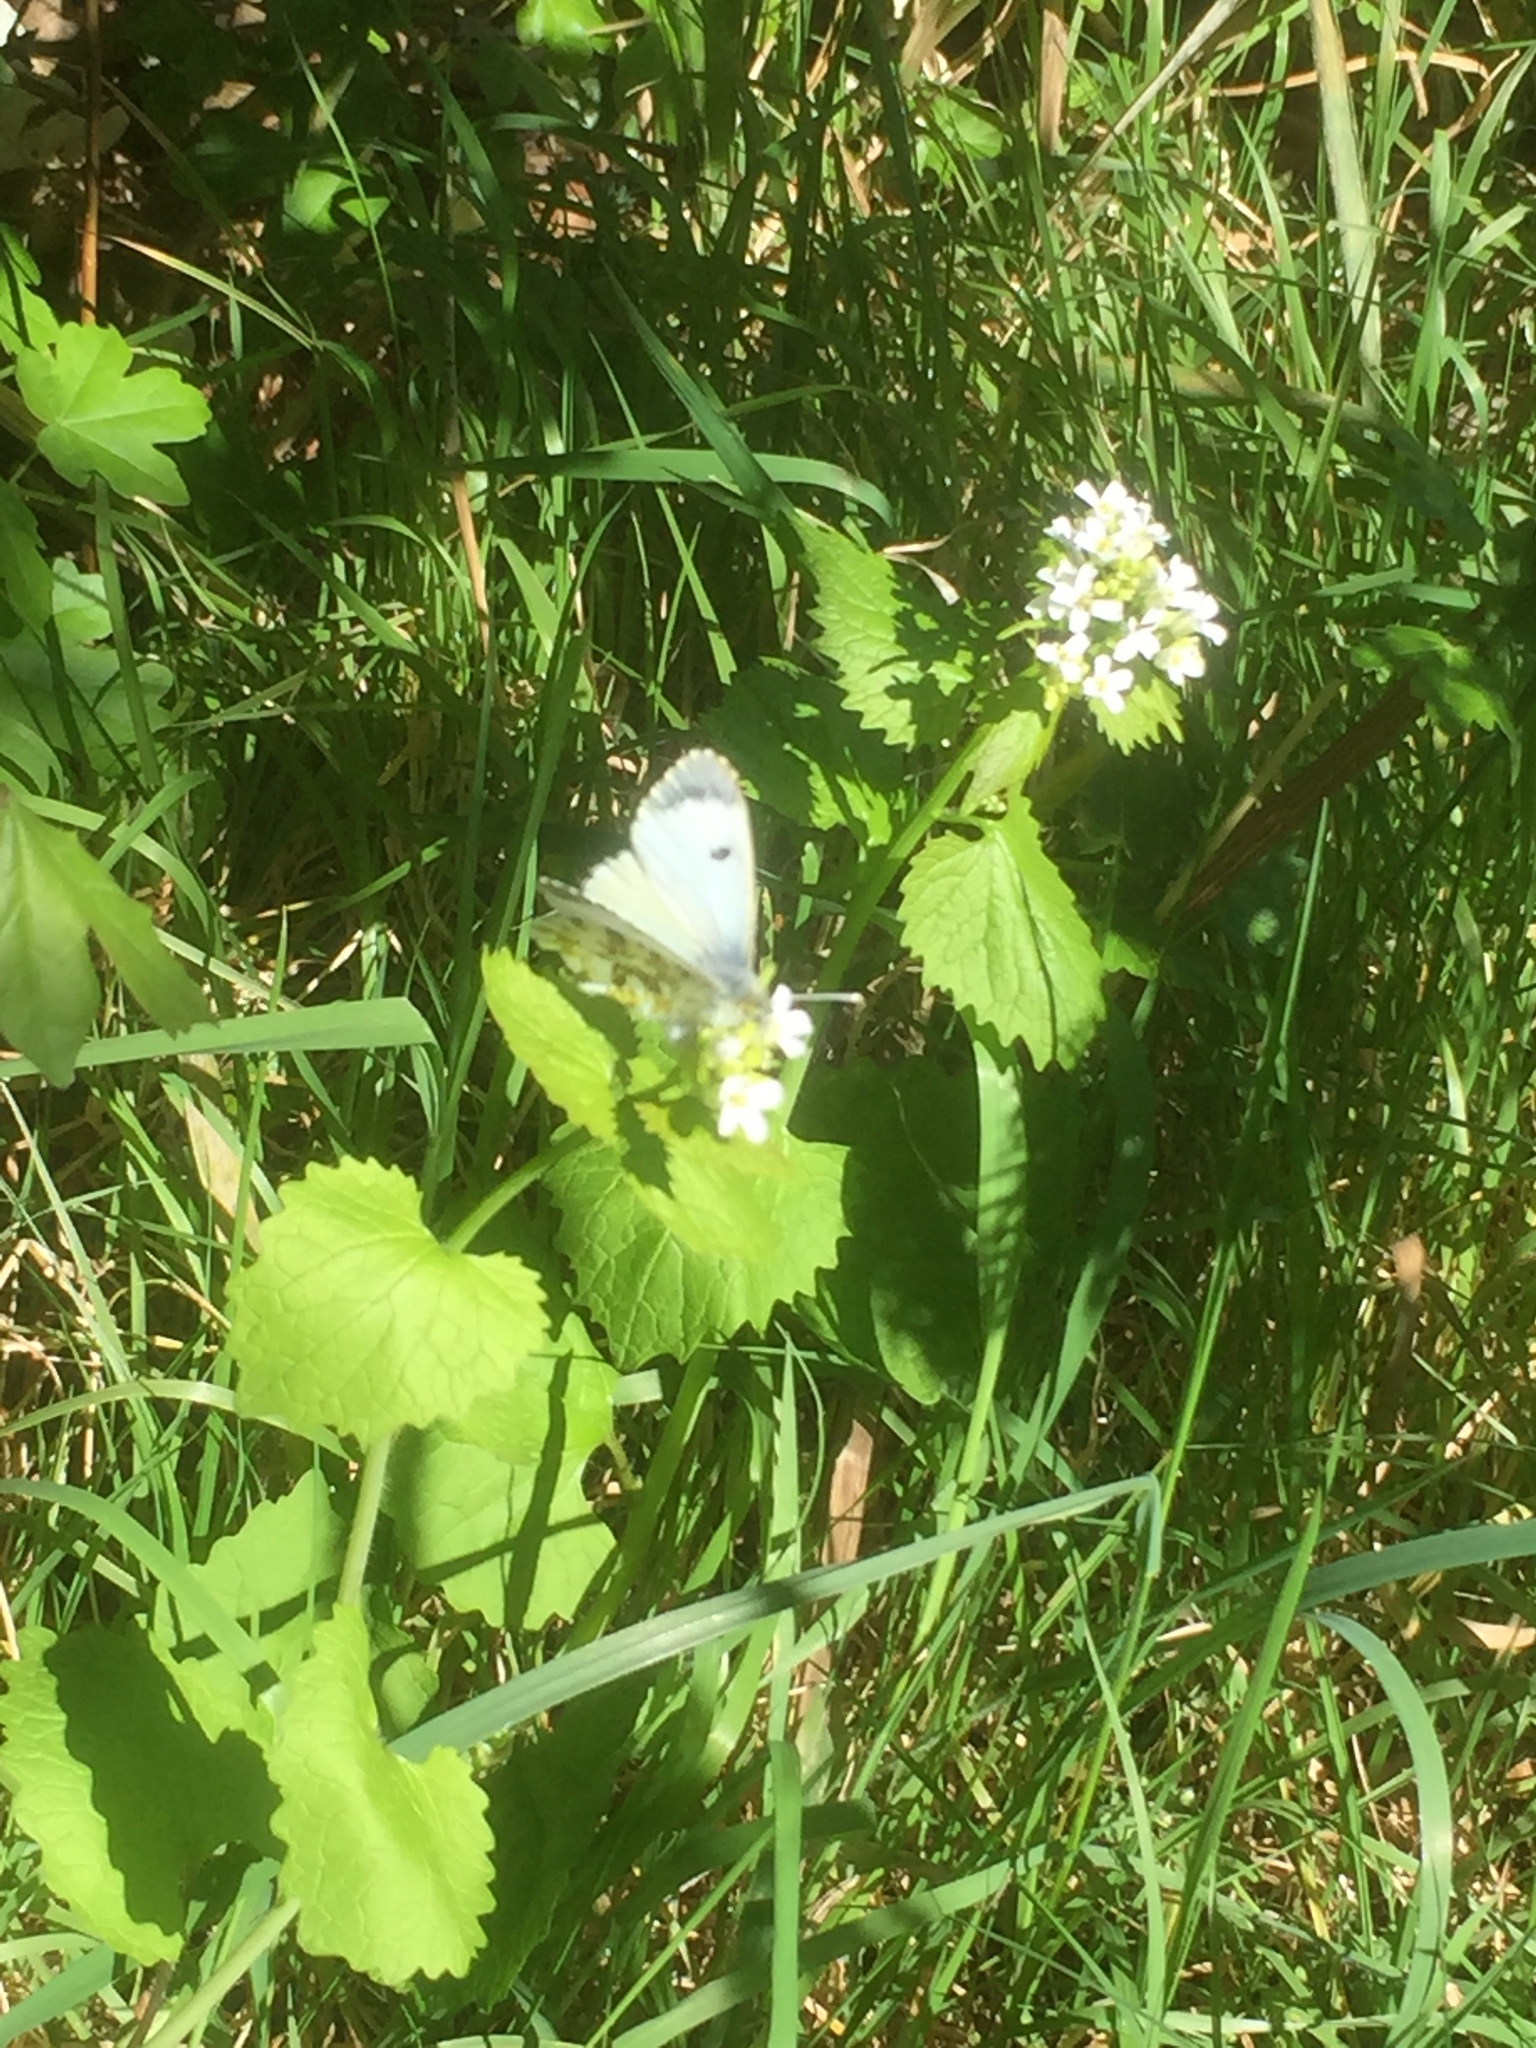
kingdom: Plantae
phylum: Tracheophyta
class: Magnoliopsida
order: Brassicales
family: Brassicaceae
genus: Alliaria
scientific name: Alliaria petiolata
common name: Garlic mustard
